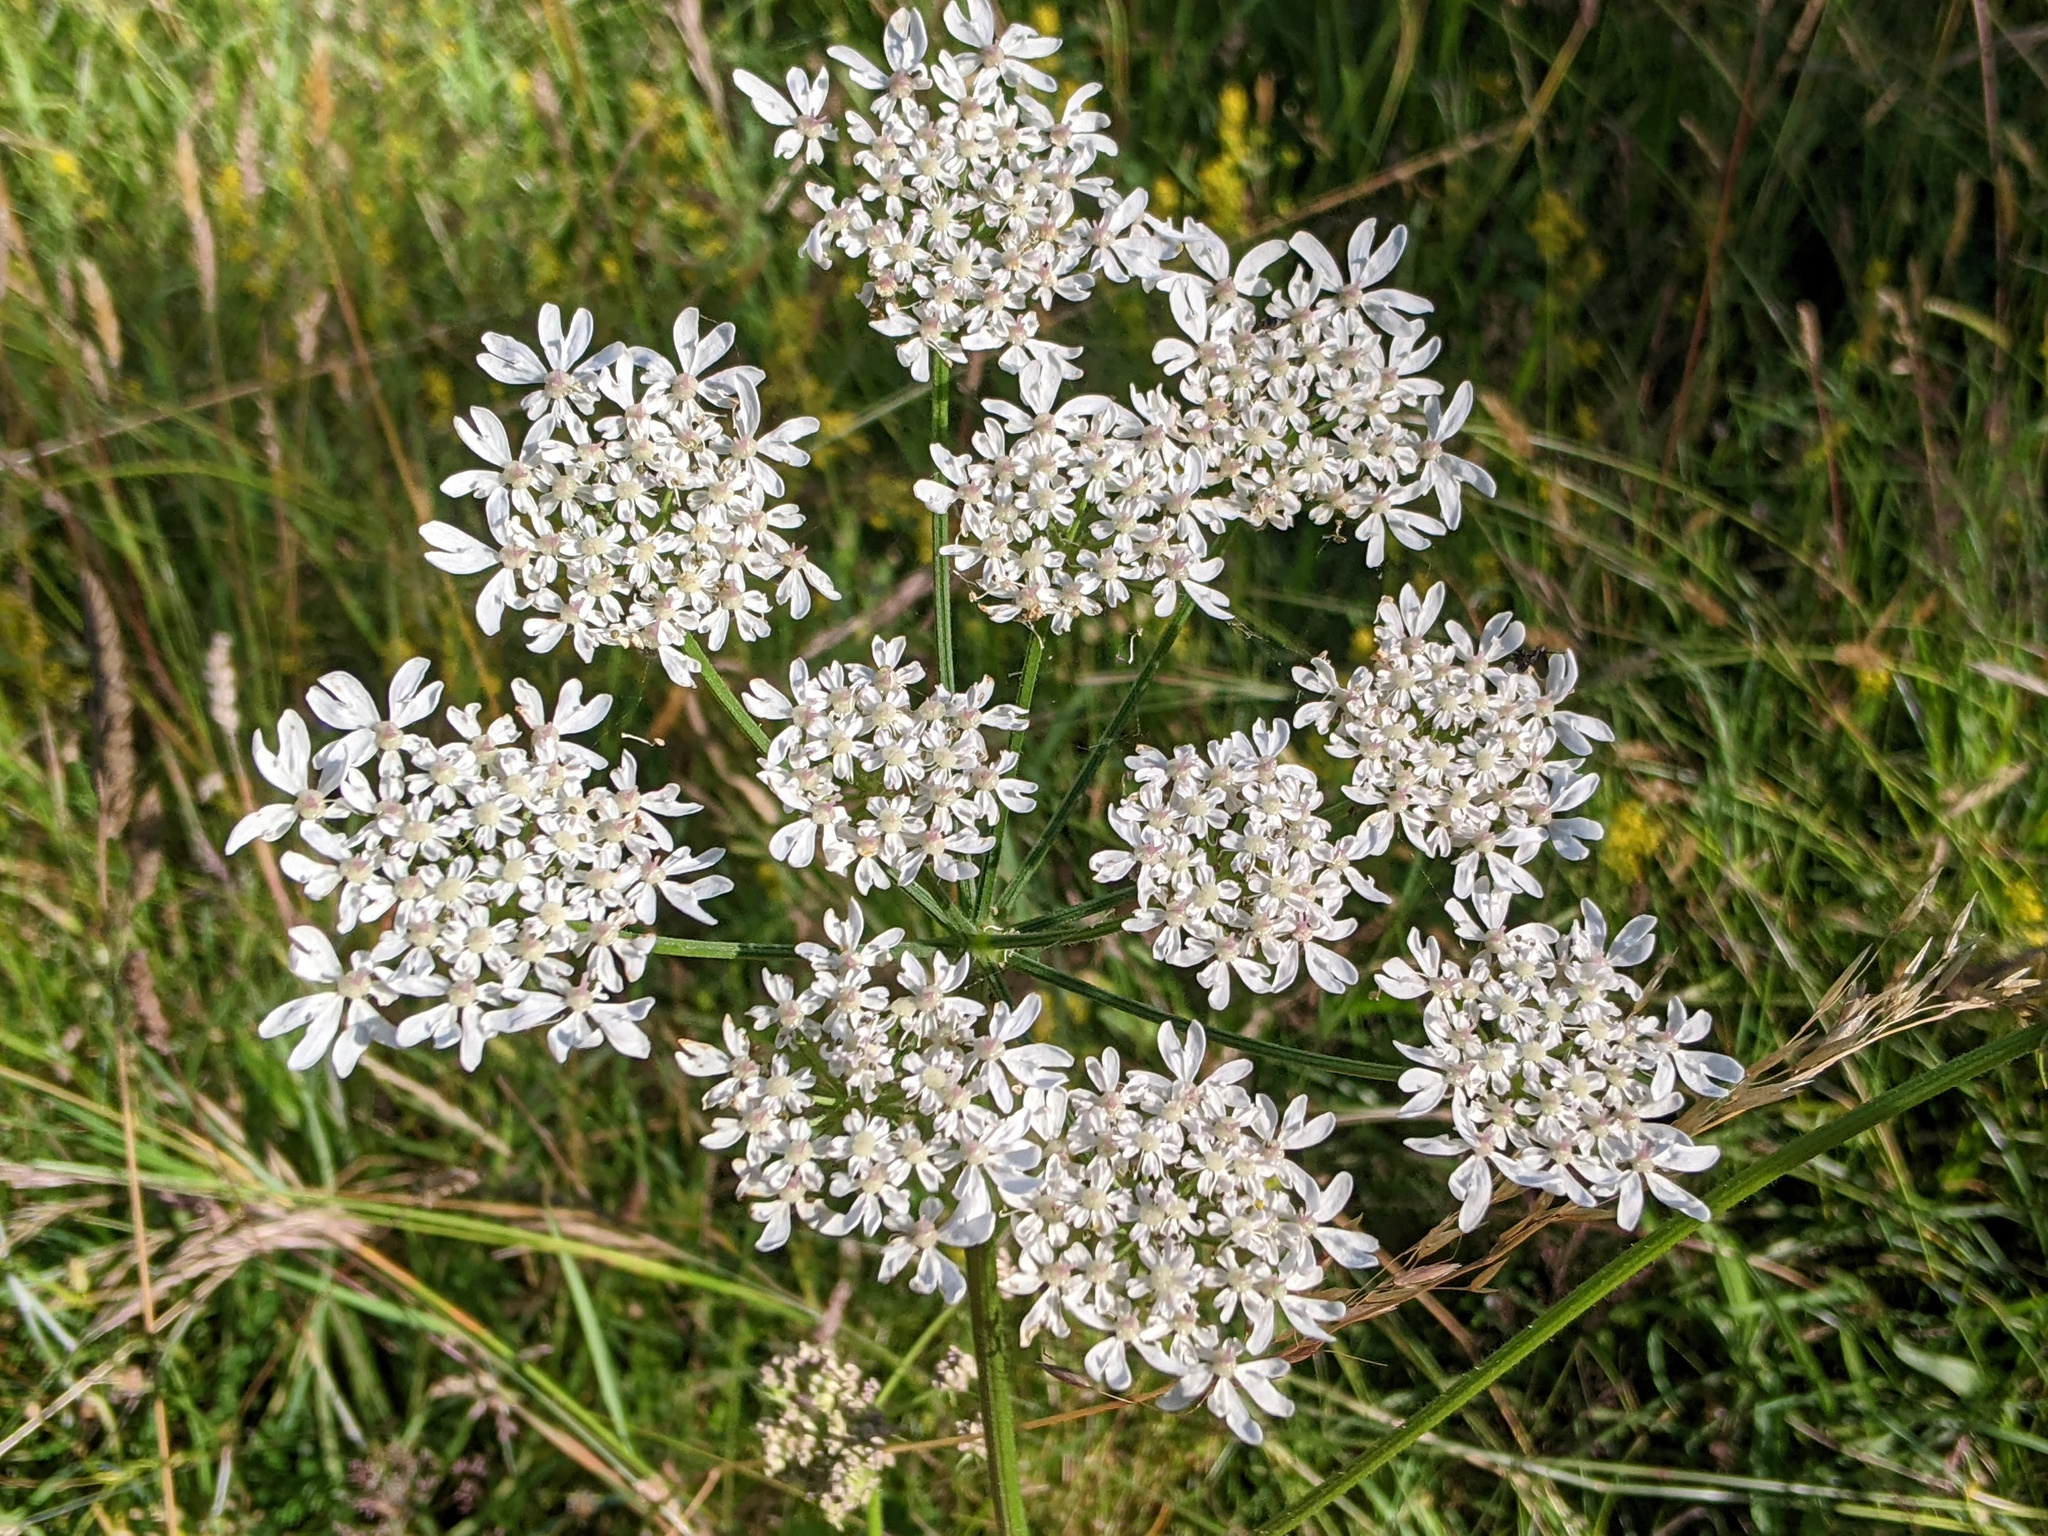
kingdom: Plantae
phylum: Tracheophyta
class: Magnoliopsida
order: Apiales
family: Apiaceae
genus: Heracleum
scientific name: Heracleum sphondylium
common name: Hogweed
